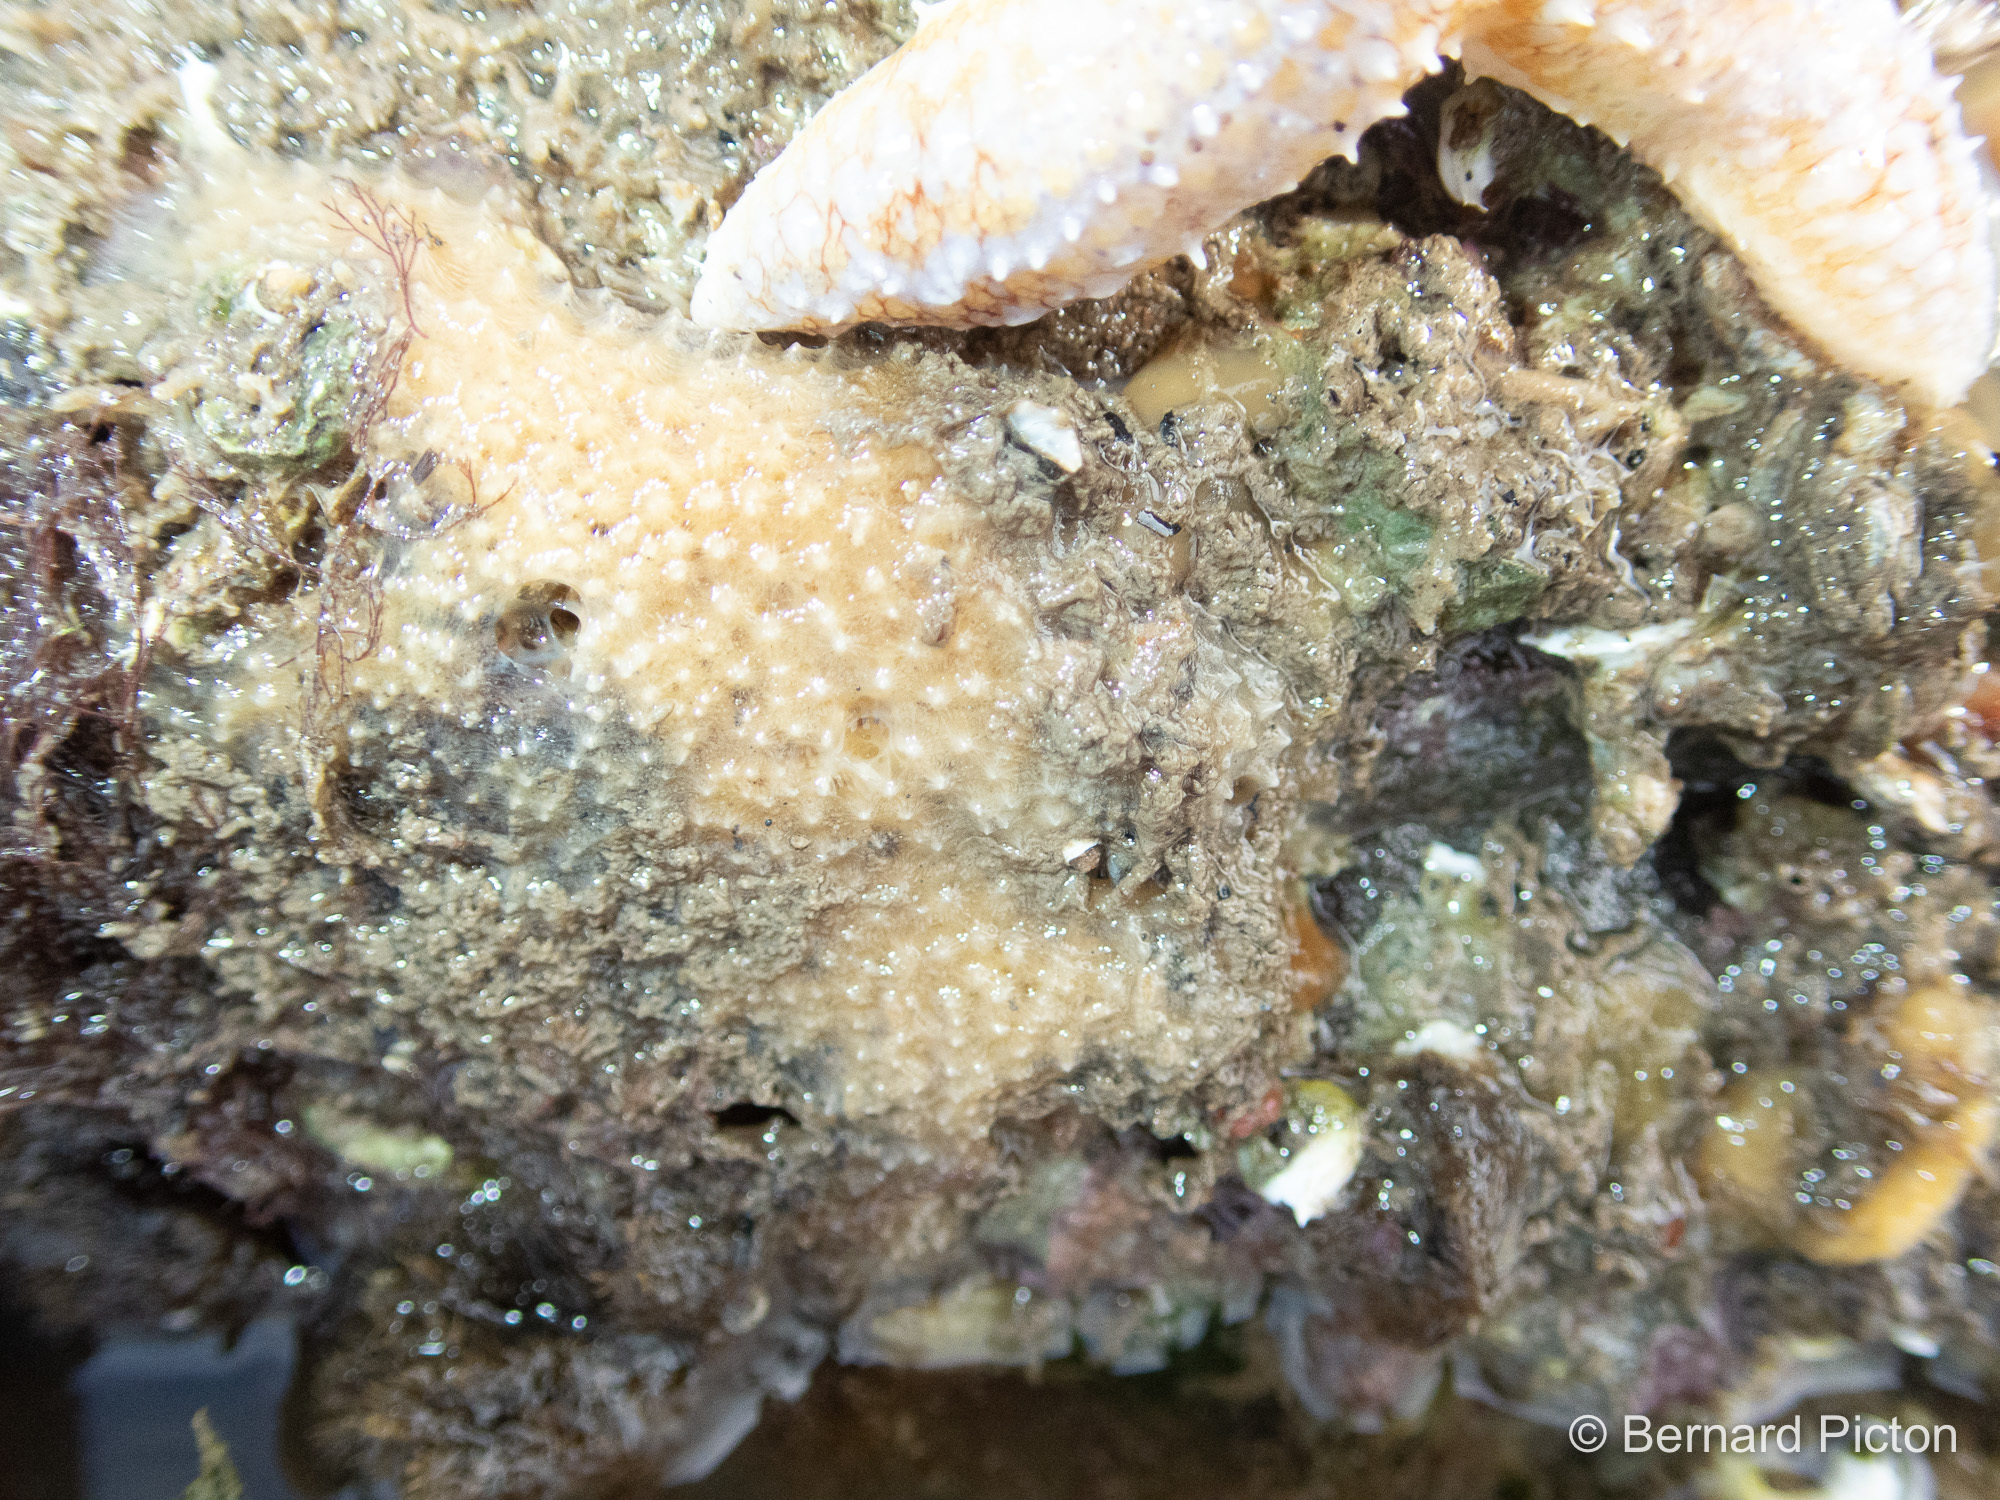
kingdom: Animalia
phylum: Porifera
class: Demospongiae
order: Dictyoceratida
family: Dysideidae
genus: Dysidea
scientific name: Dysidea fragilis
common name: Goosebump sponge
